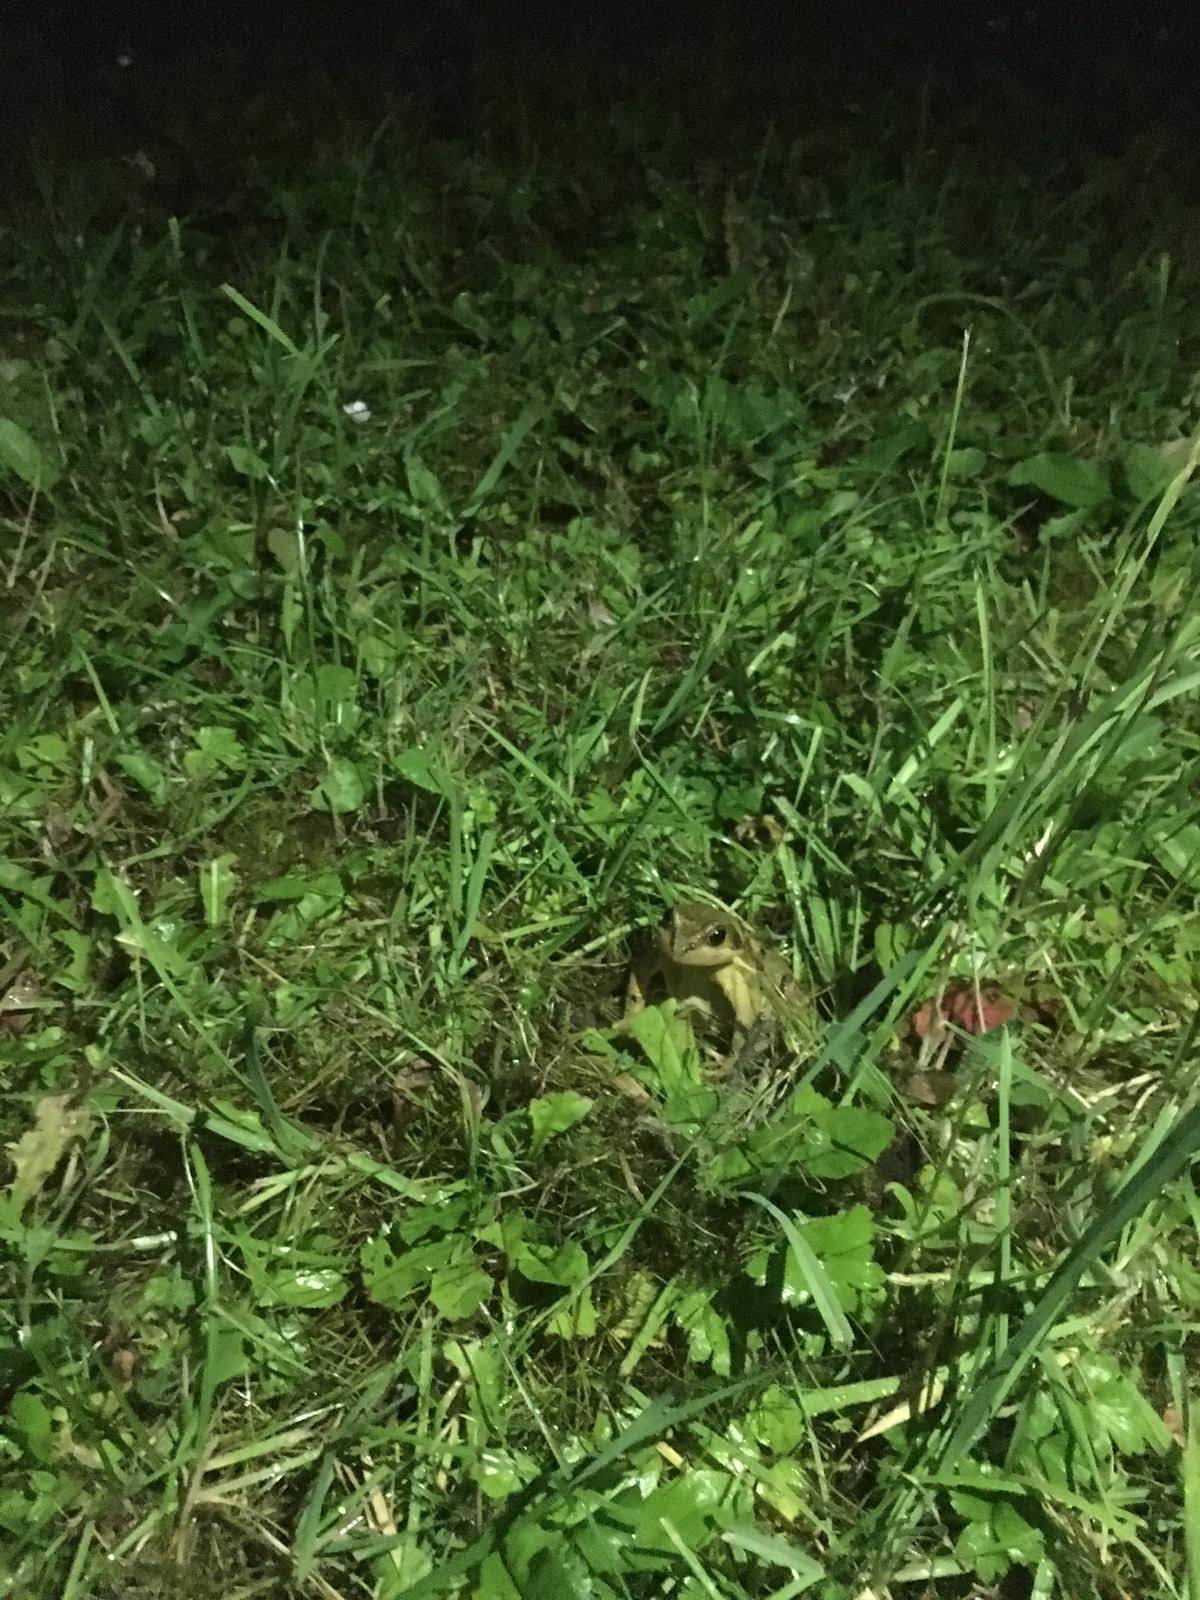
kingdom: Animalia
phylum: Chordata
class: Amphibia
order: Anura
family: Ranidae
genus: Rana
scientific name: Rana temporaria
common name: Common frog
